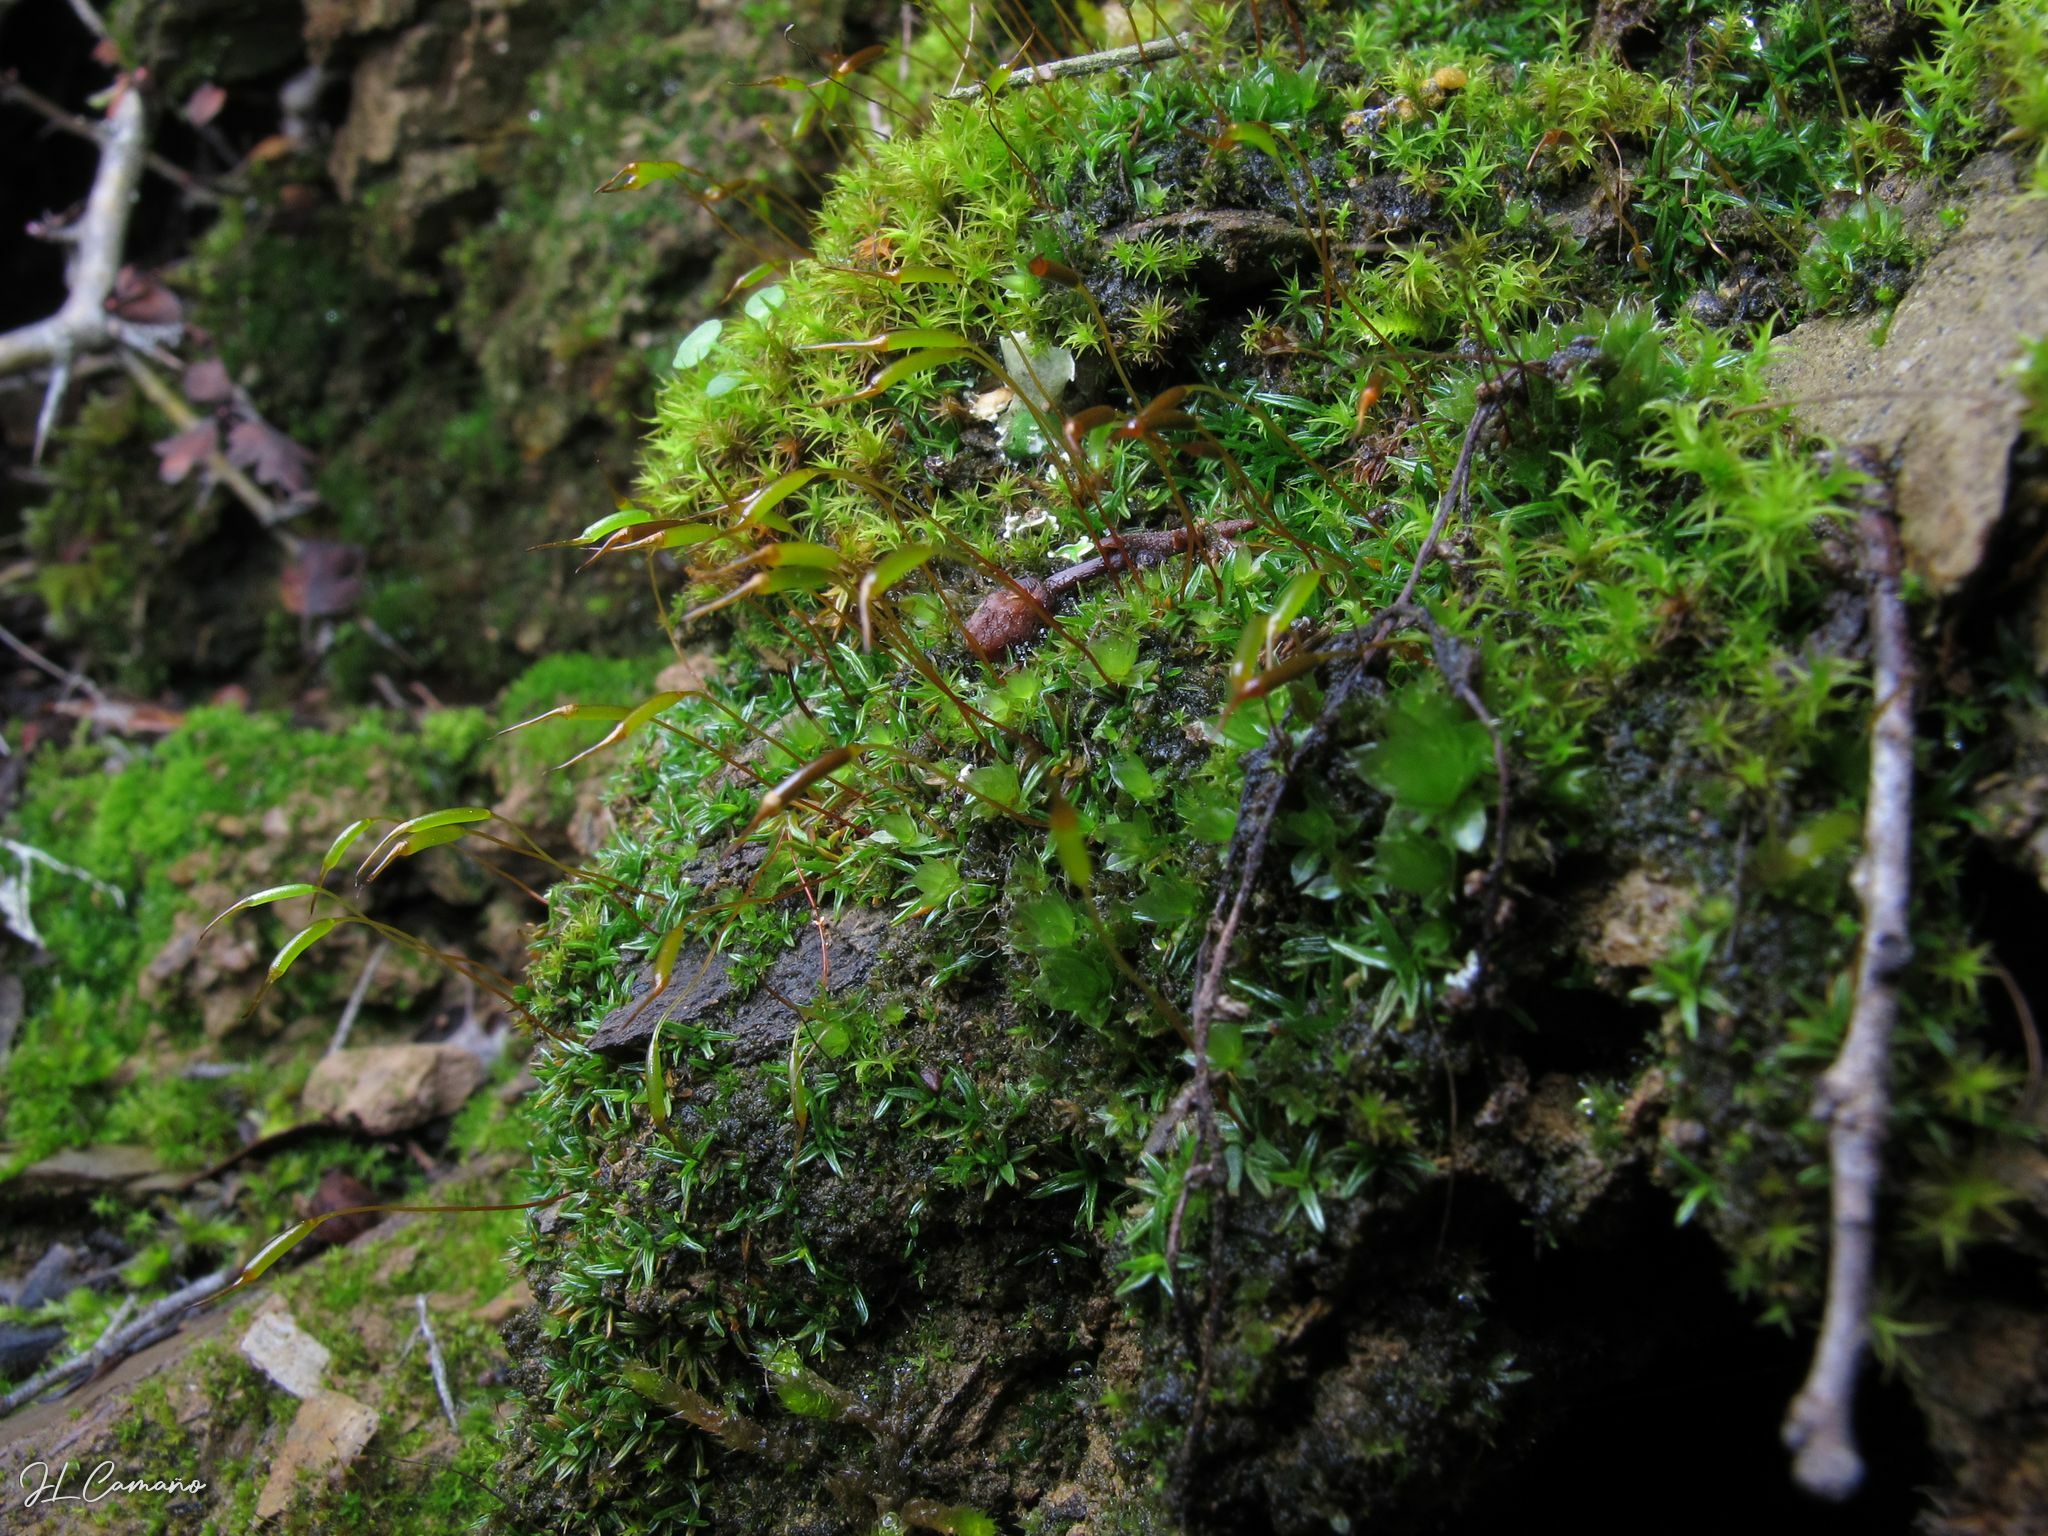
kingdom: Plantae
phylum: Bryophyta
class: Bryopsida
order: Pottiales
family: Pottiaceae
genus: Aloina
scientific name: Aloina aloides
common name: Common aloe-moss
